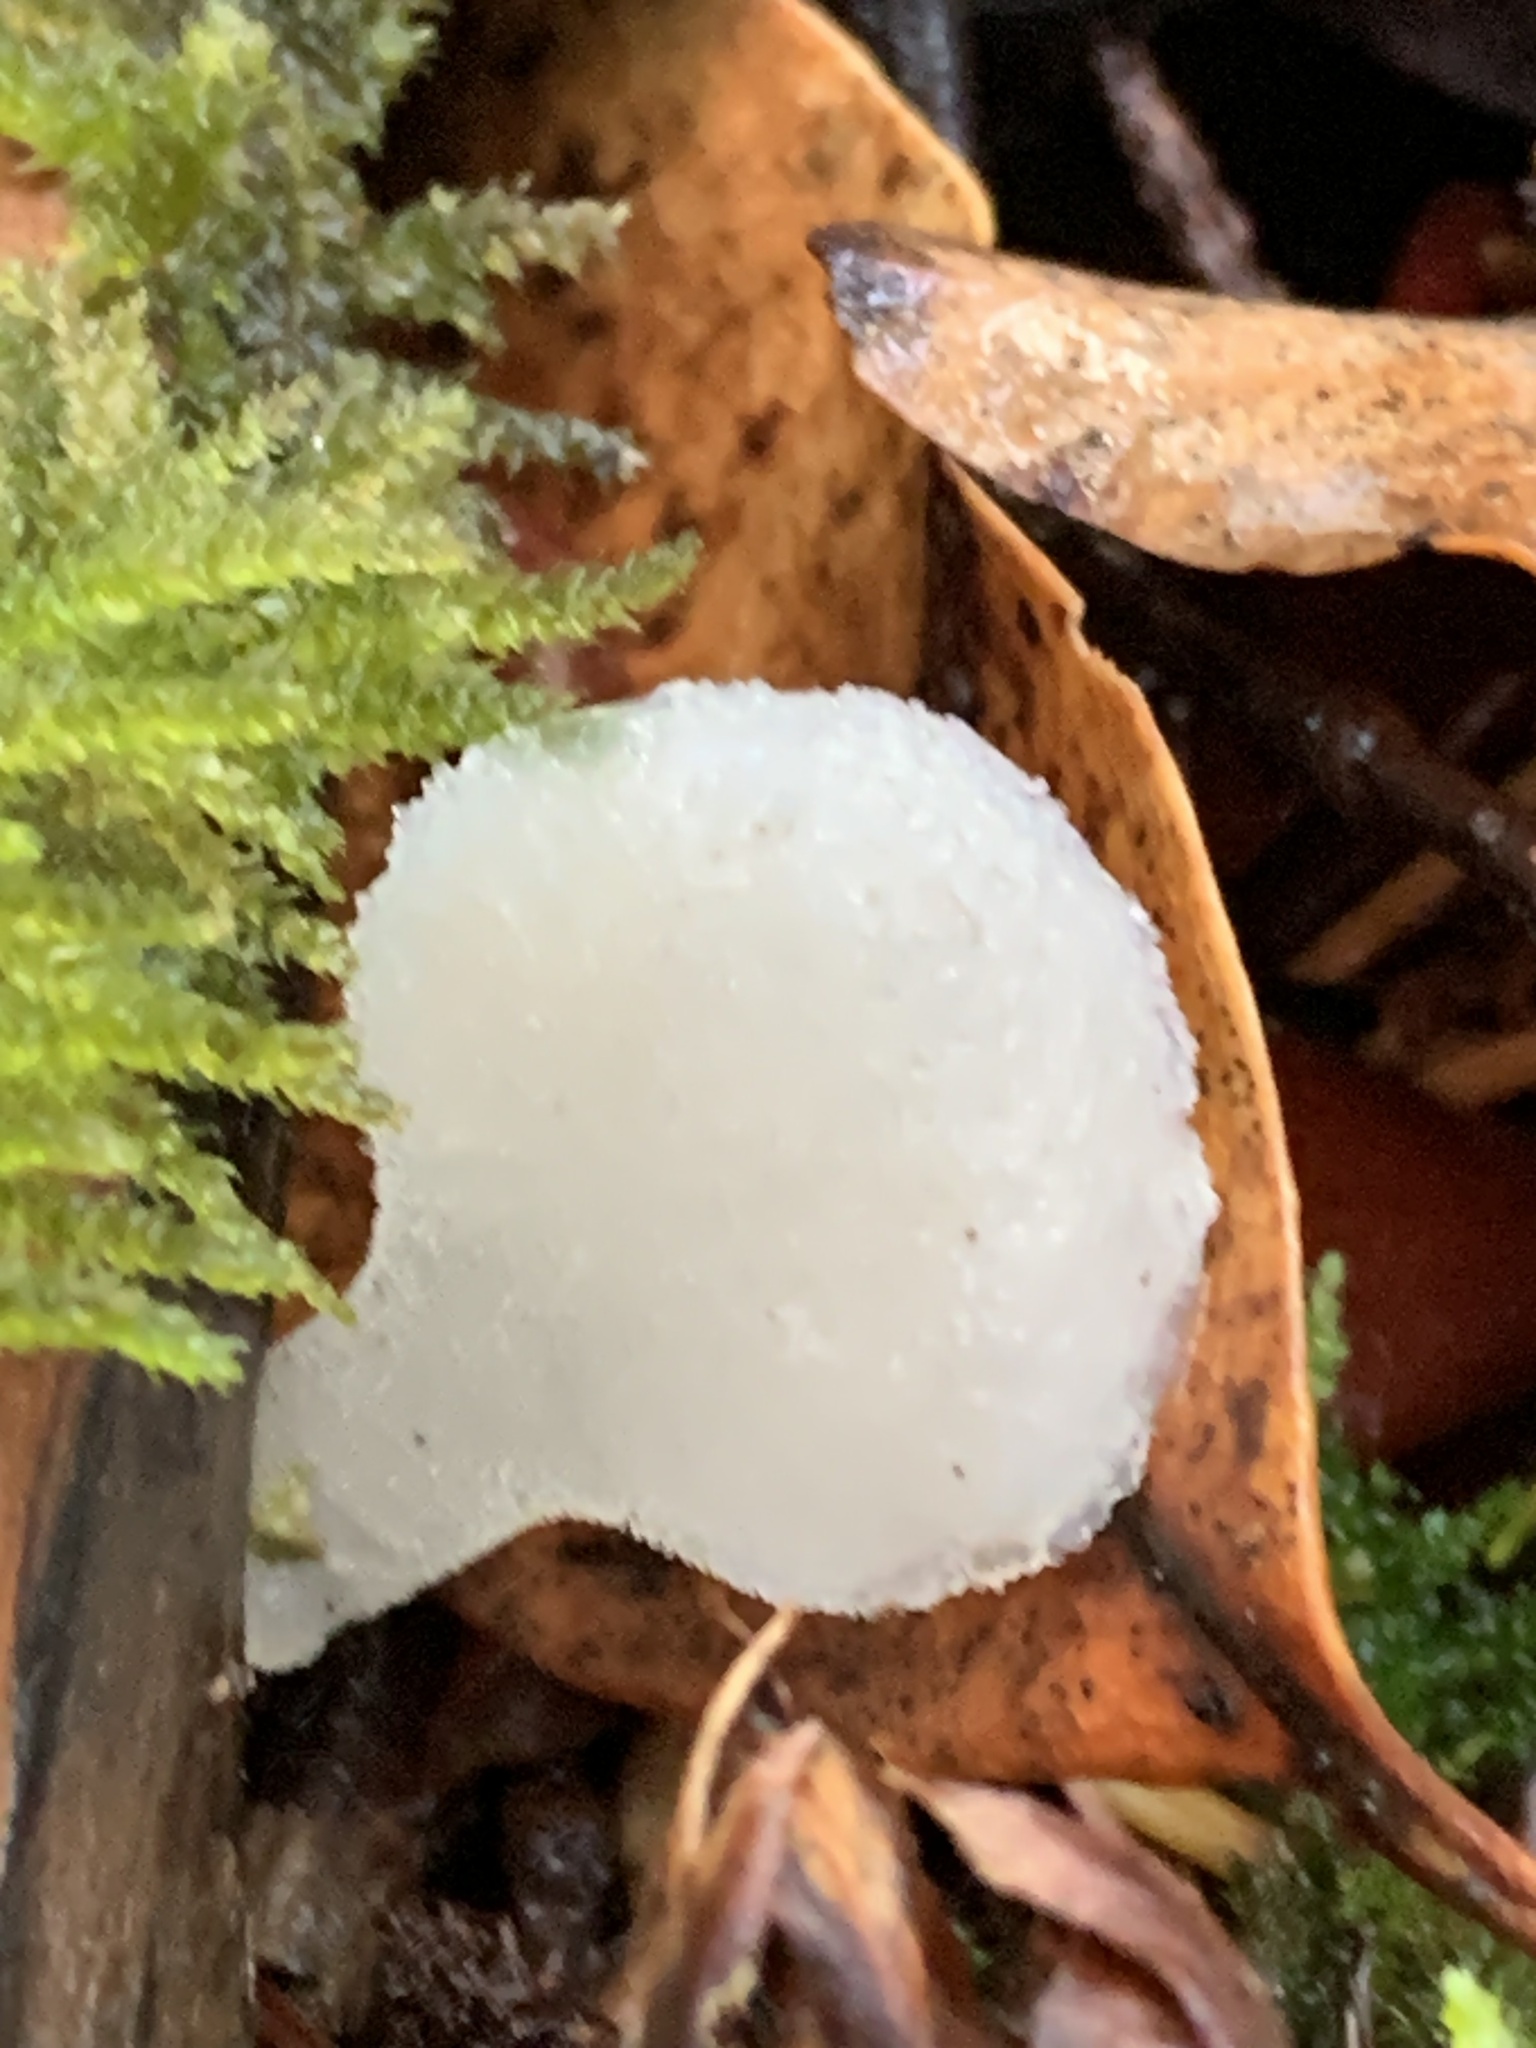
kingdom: Fungi
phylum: Basidiomycota
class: Agaricomycetes
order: Auriculariales
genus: Pseudohydnum
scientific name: Pseudohydnum gelatinosum
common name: Jelly tongue
